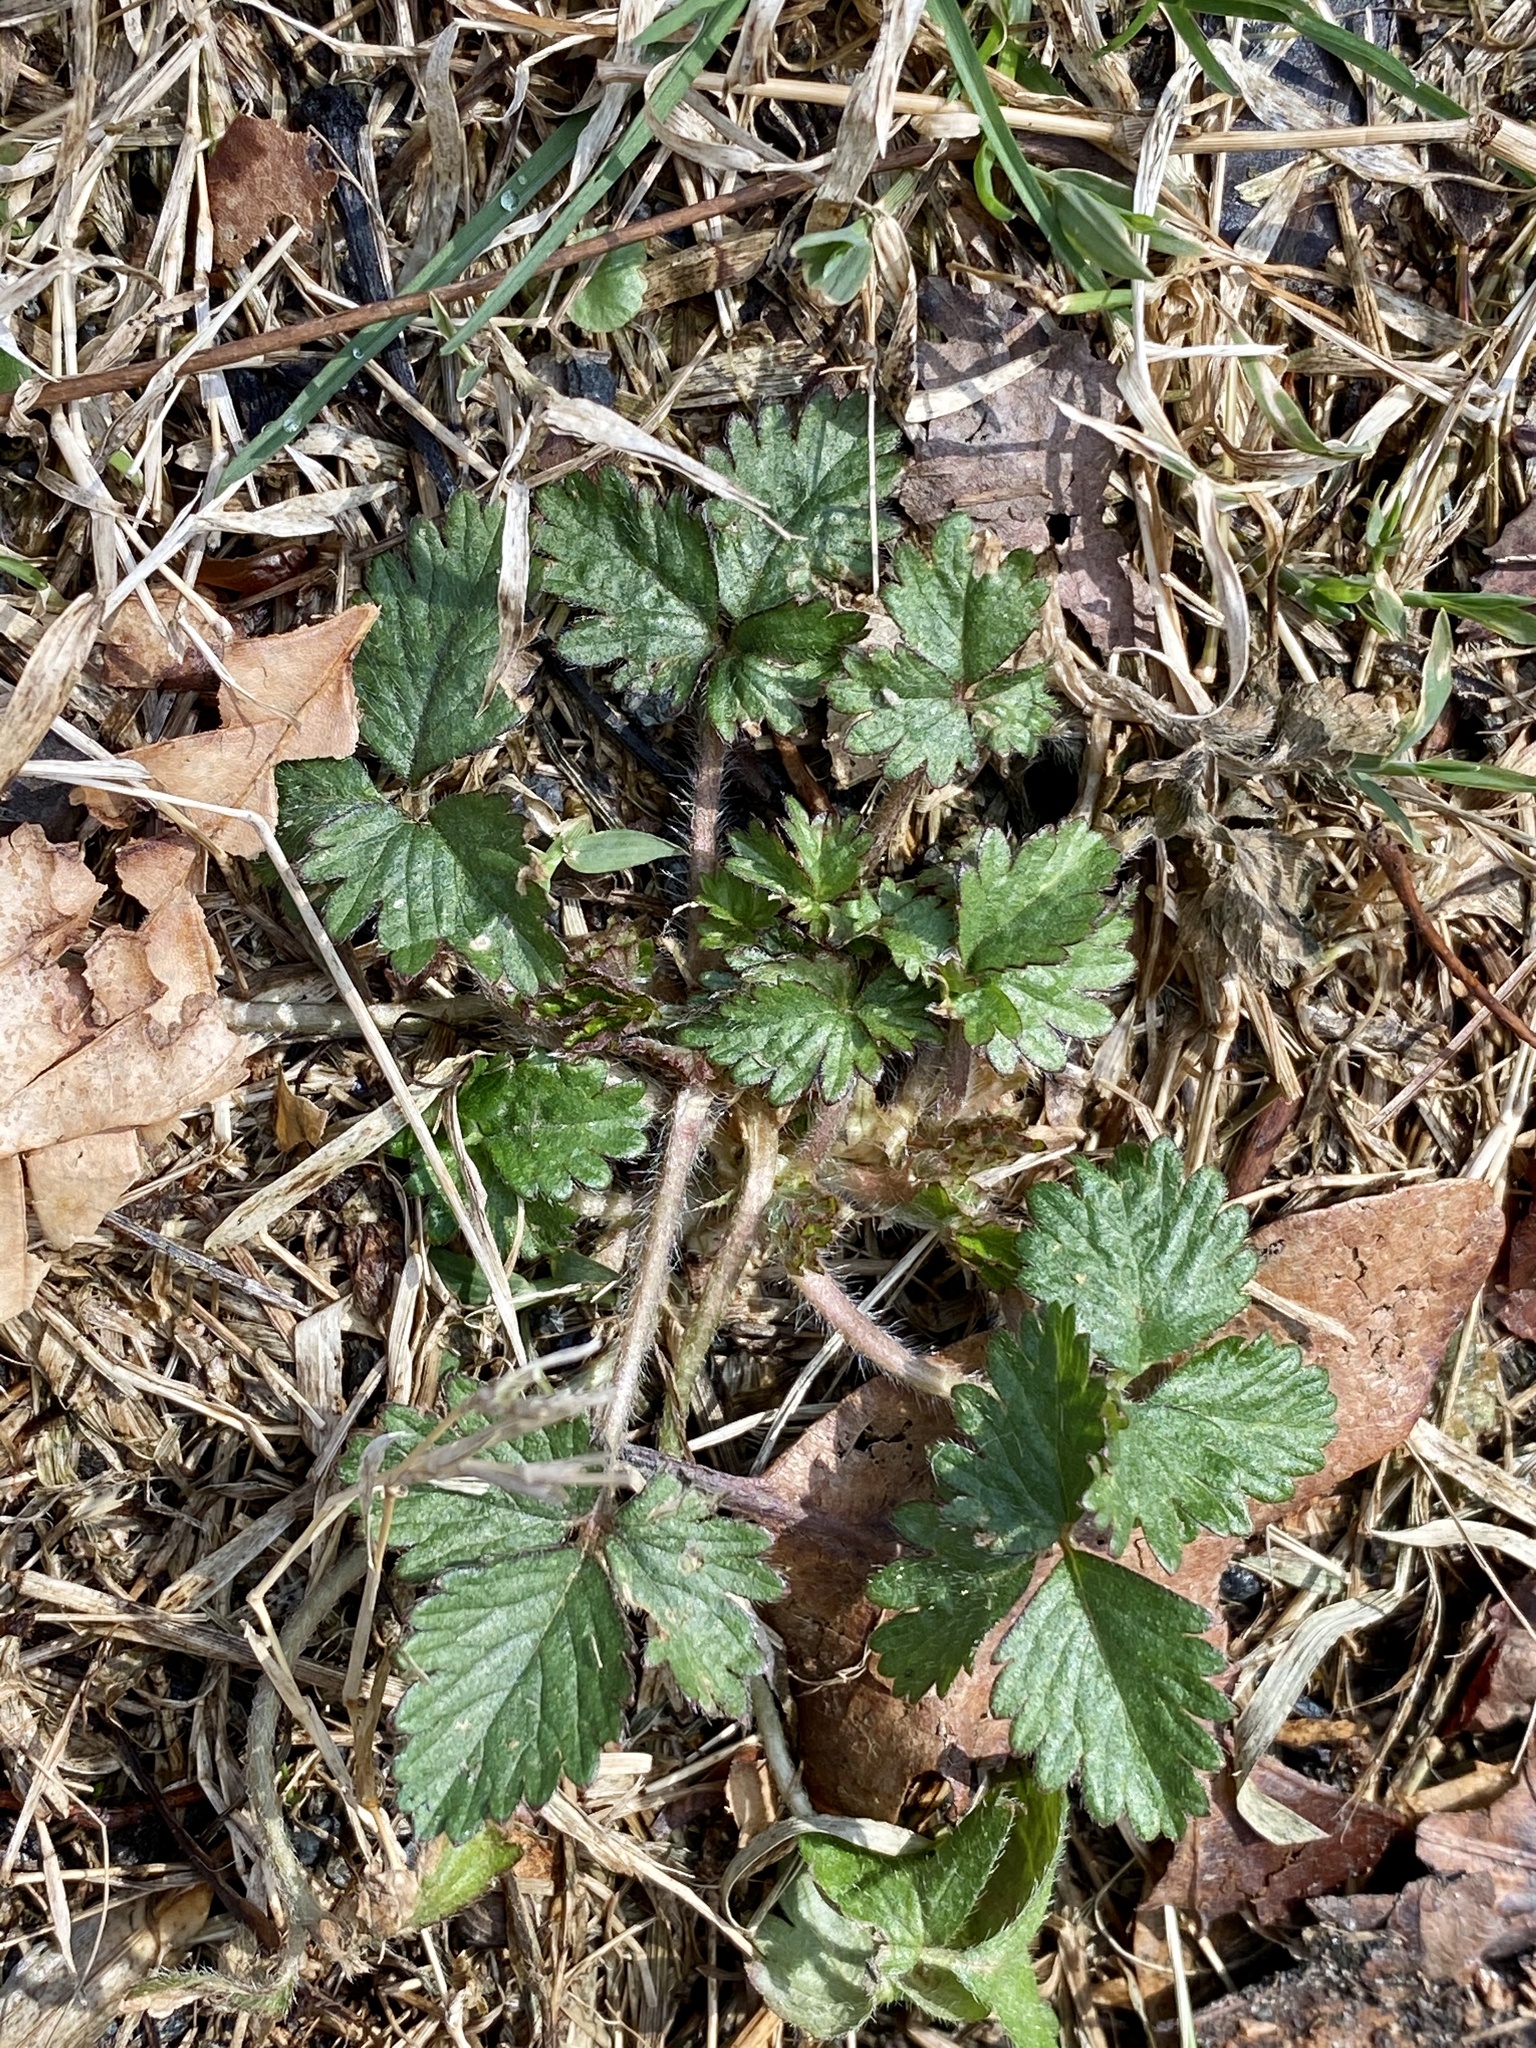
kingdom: Plantae
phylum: Tracheophyta
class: Magnoliopsida
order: Rosales
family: Rosaceae
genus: Potentilla
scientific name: Potentilla indica
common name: Yellow-flowered strawberry
